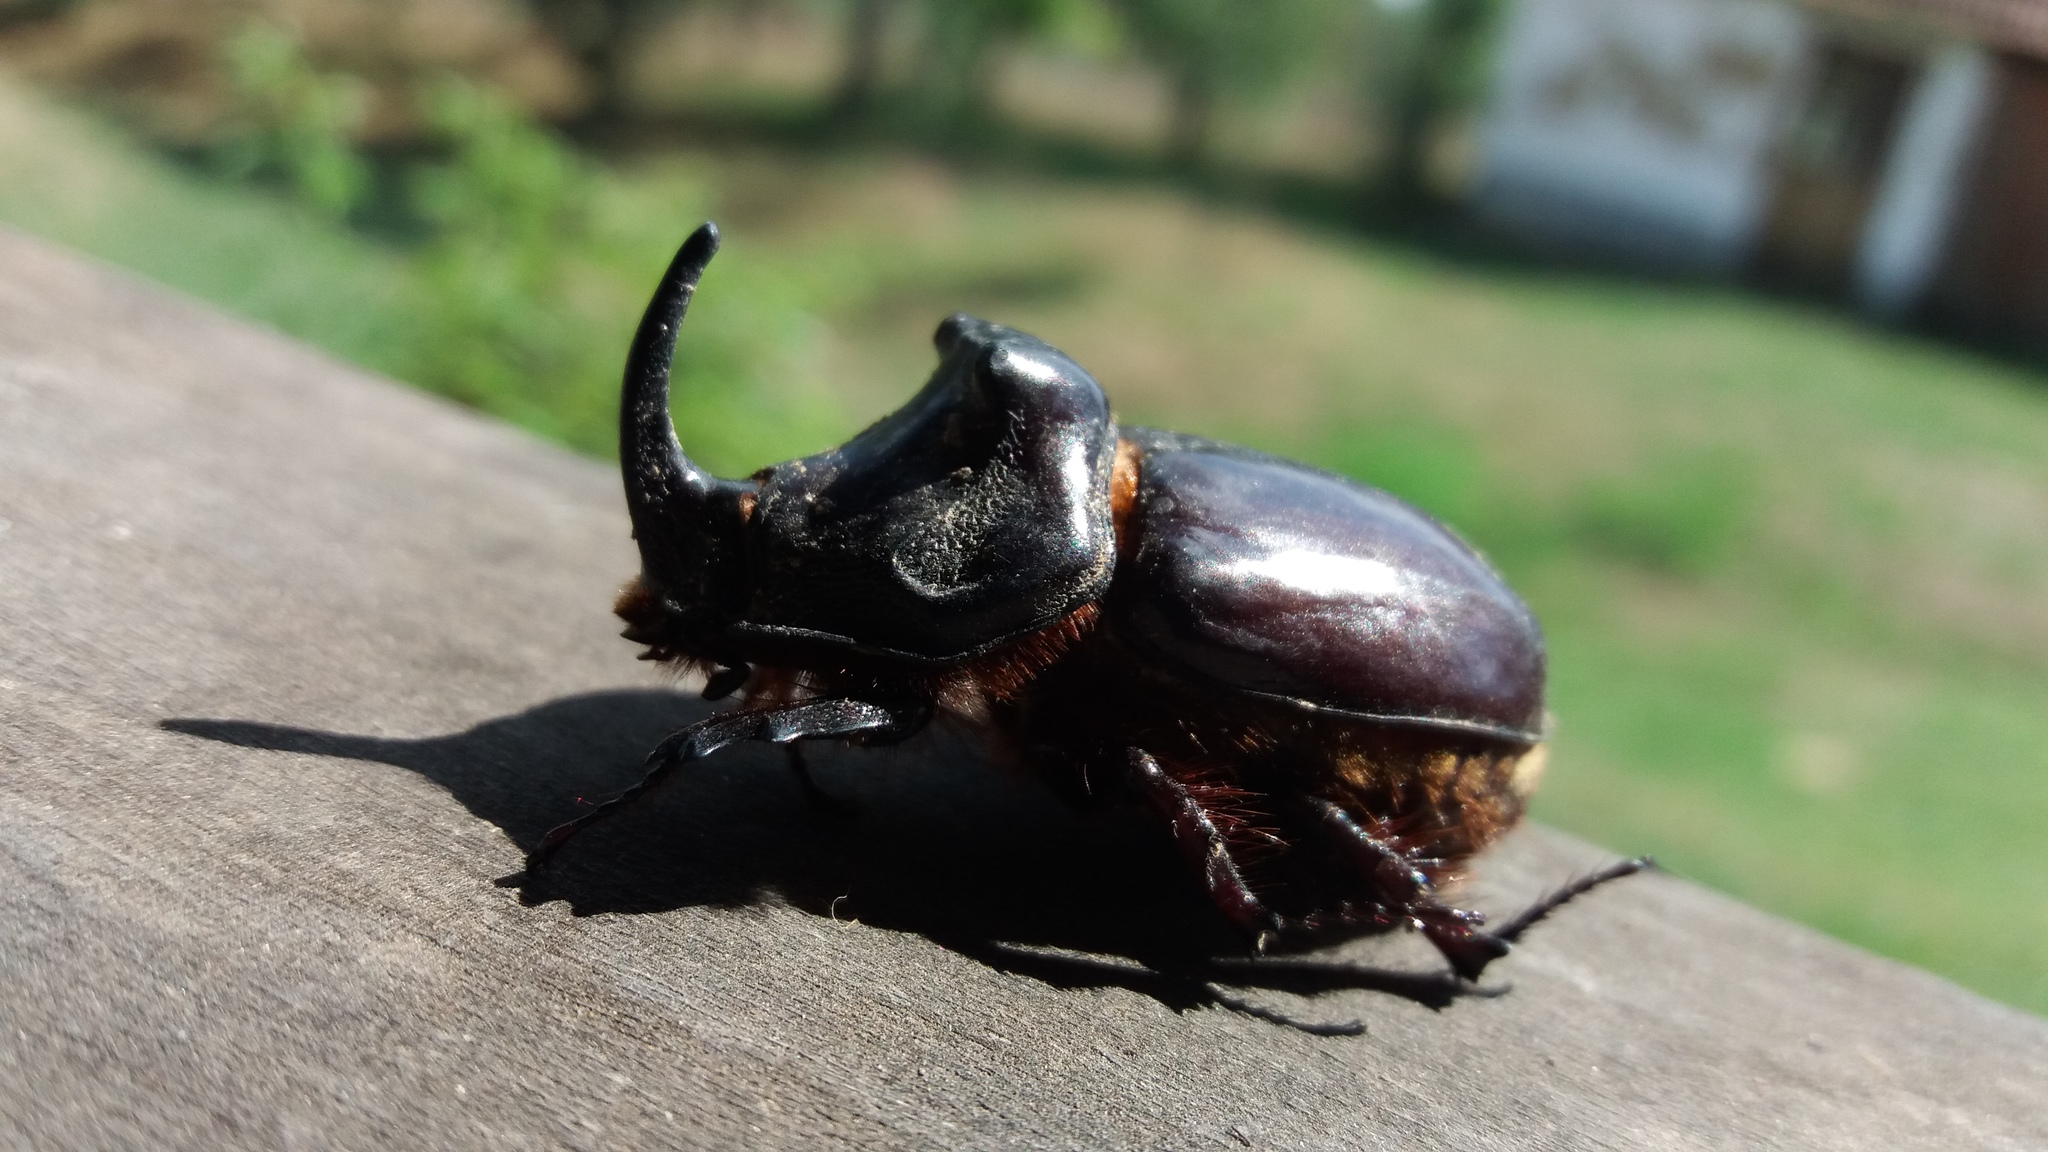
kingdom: Animalia
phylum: Arthropoda
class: Insecta
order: Coleoptera
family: Scarabaeidae
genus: Oryctes
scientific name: Oryctes nasicornis
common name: European rhinoceros beetle
